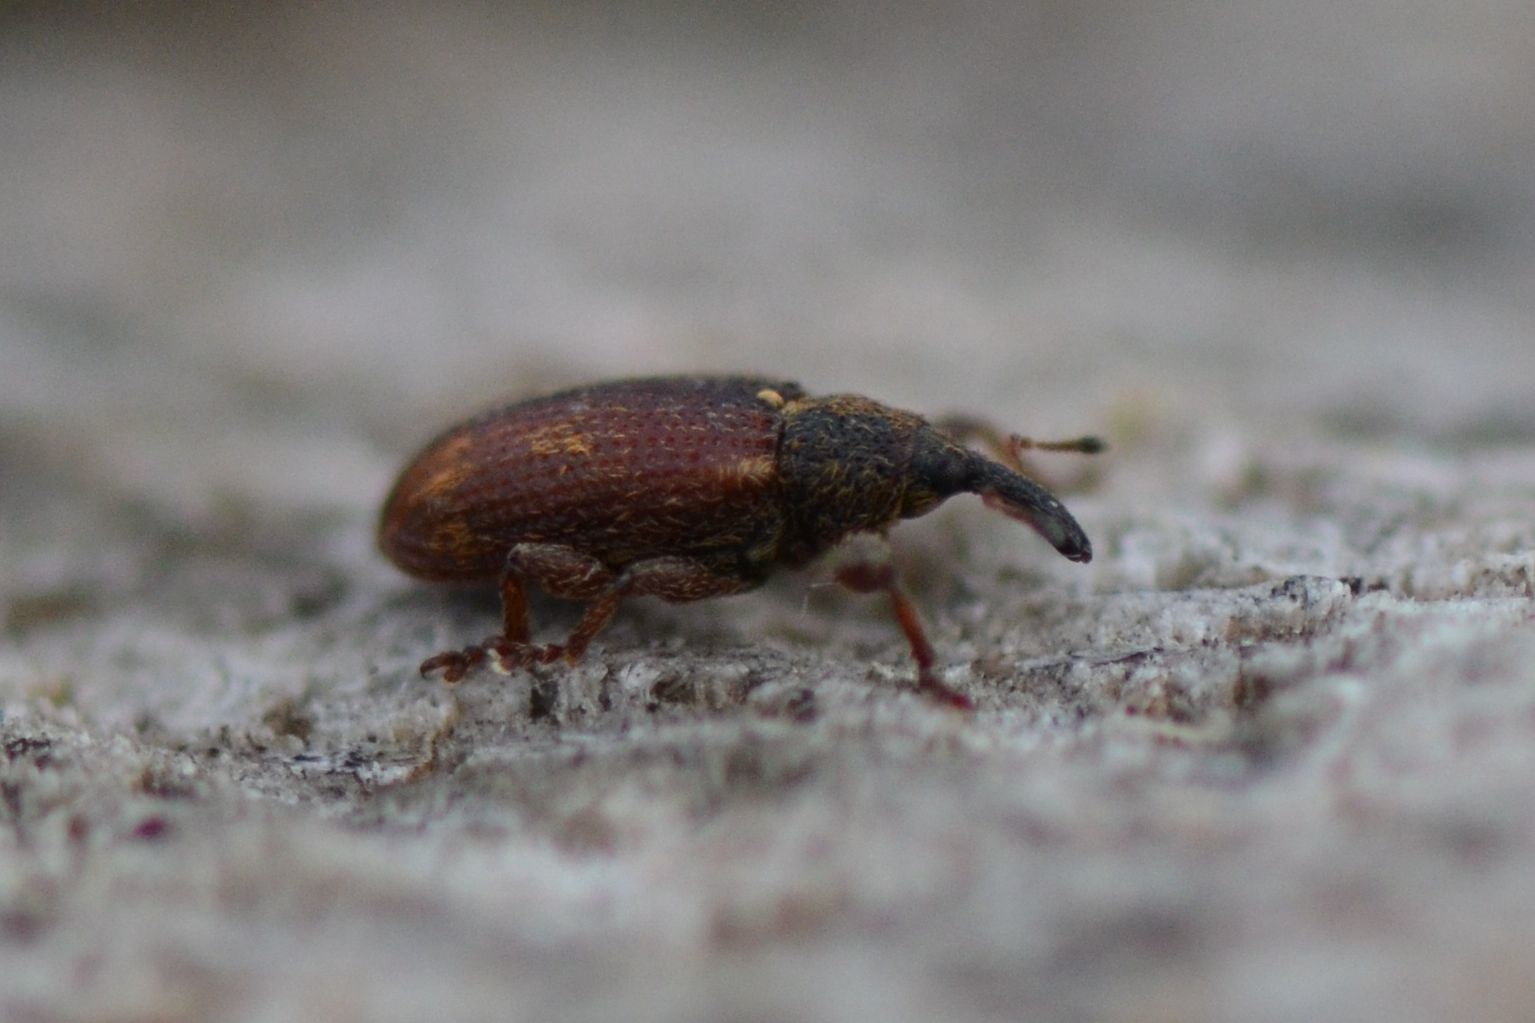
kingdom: Animalia
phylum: Arthropoda
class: Insecta
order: Coleoptera
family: Curculionidae
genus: Bradybatus
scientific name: Bradybatus kellneri
